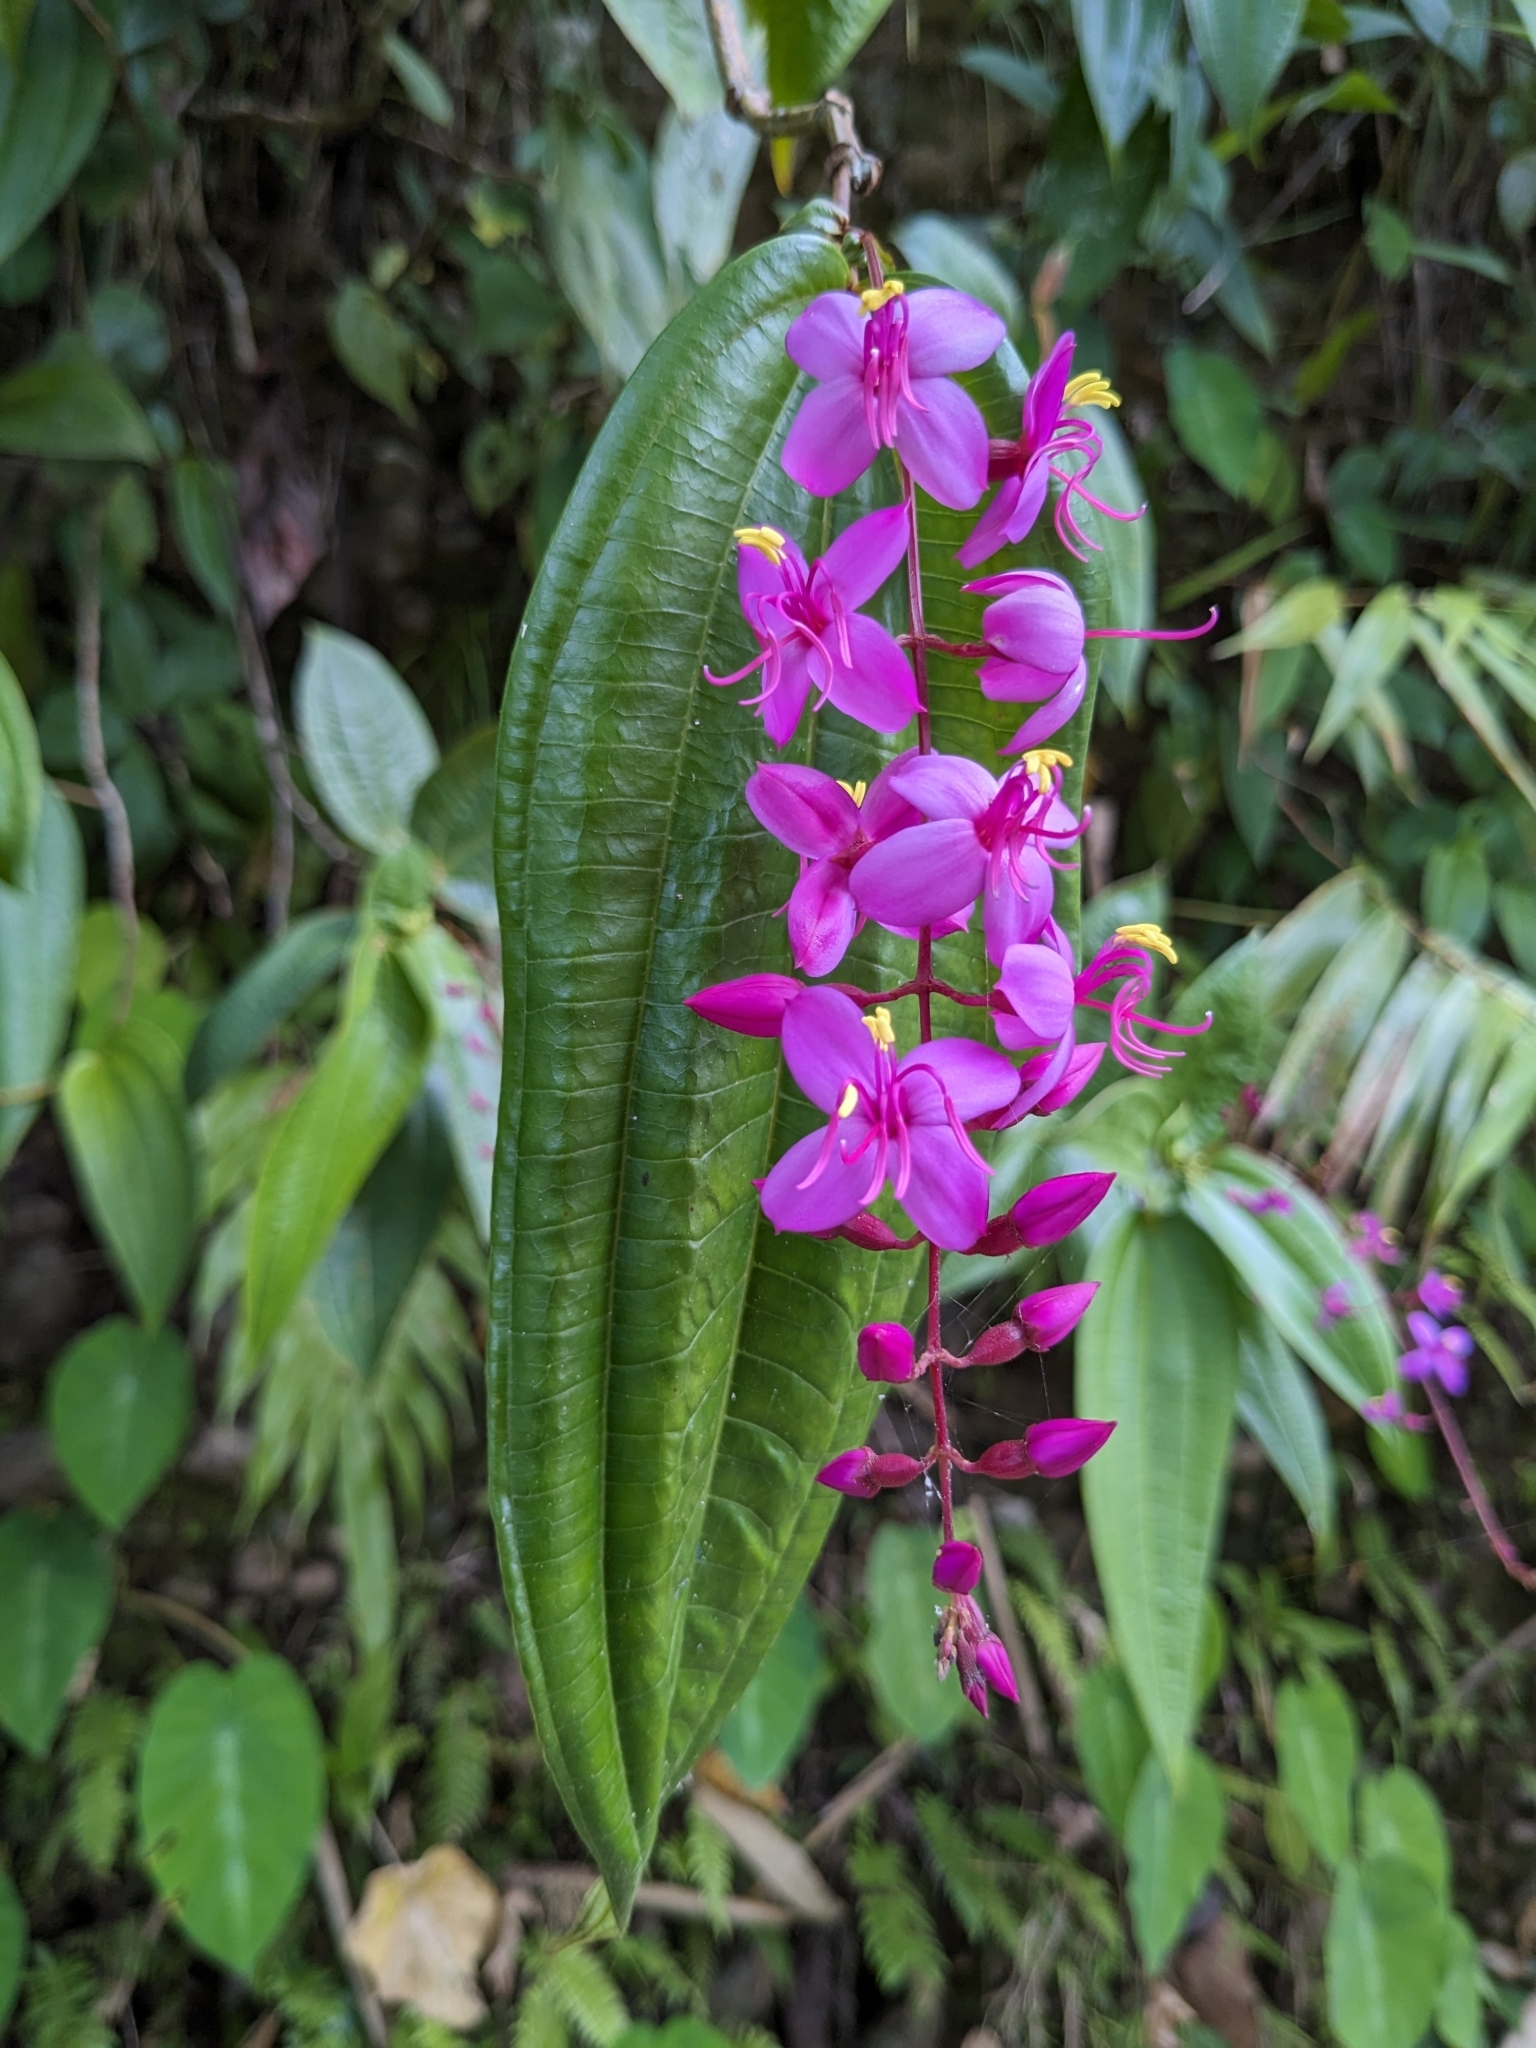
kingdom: Plantae
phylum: Tracheophyta
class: Magnoliopsida
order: Myrtales
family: Melastomataceae
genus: Oxyspora
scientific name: Oxyspora paniculata
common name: Bristletips
